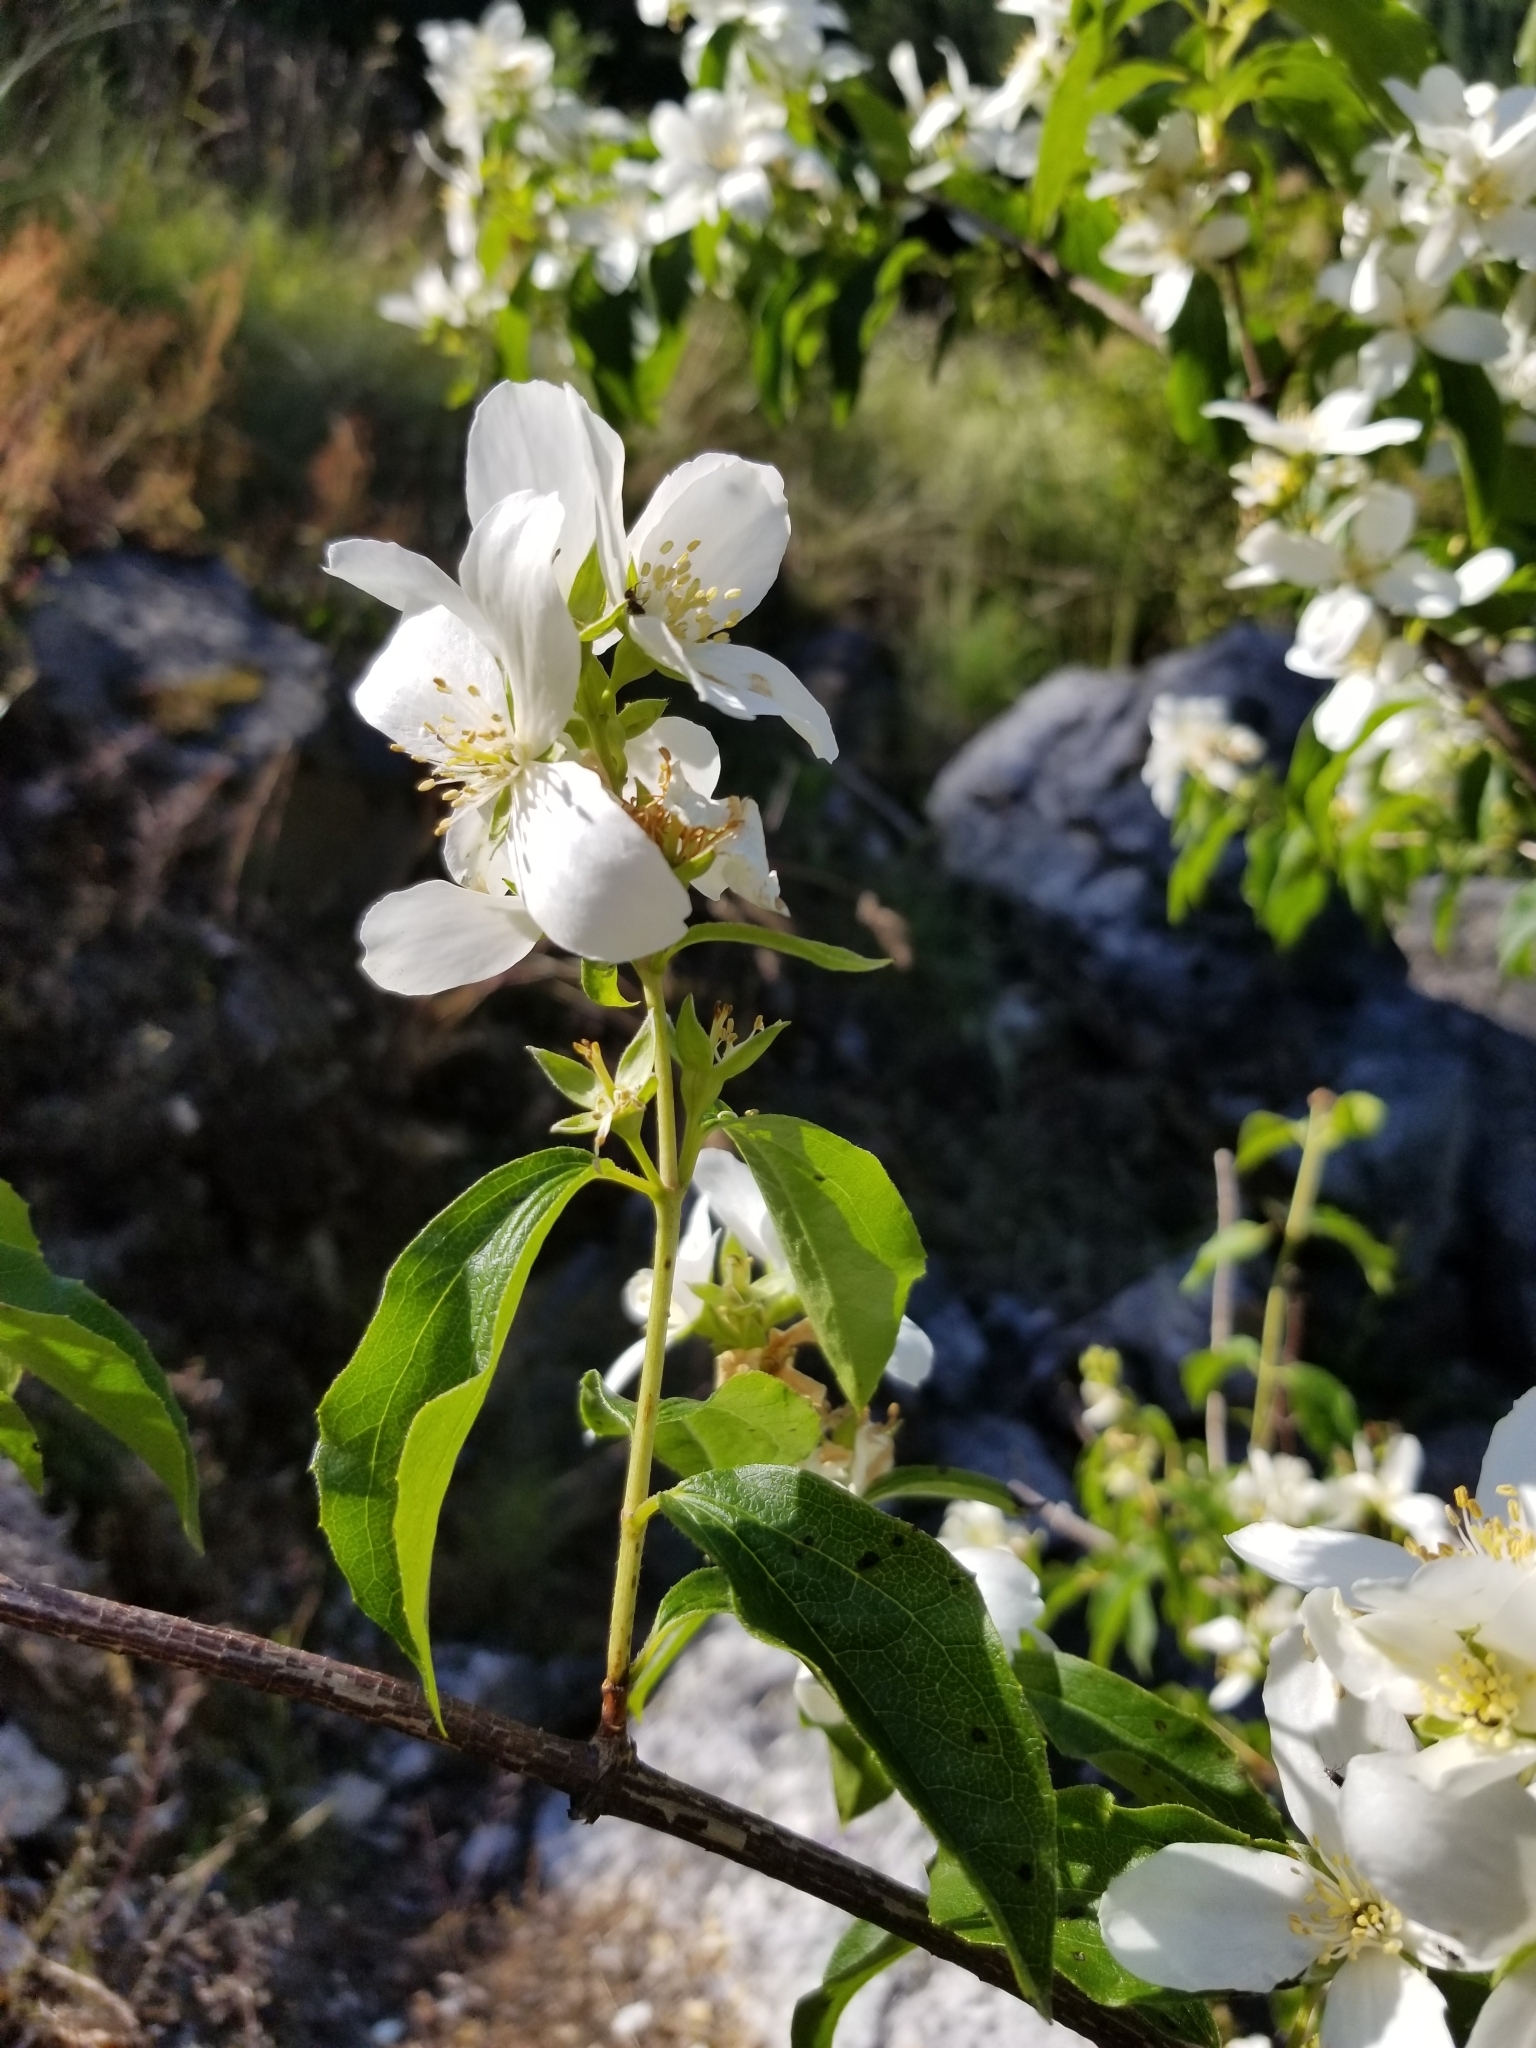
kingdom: Plantae
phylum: Tracheophyta
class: Magnoliopsida
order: Cornales
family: Hydrangeaceae
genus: Philadelphus
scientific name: Philadelphus lewisii
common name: Lewis's mock orange
